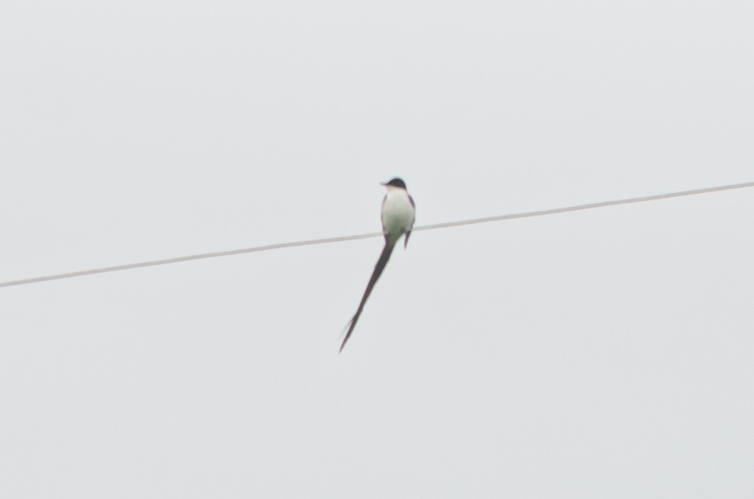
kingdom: Animalia
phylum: Chordata
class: Aves
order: Passeriformes
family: Tyrannidae
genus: Tyrannus
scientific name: Tyrannus savana
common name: Fork-tailed flycatcher
